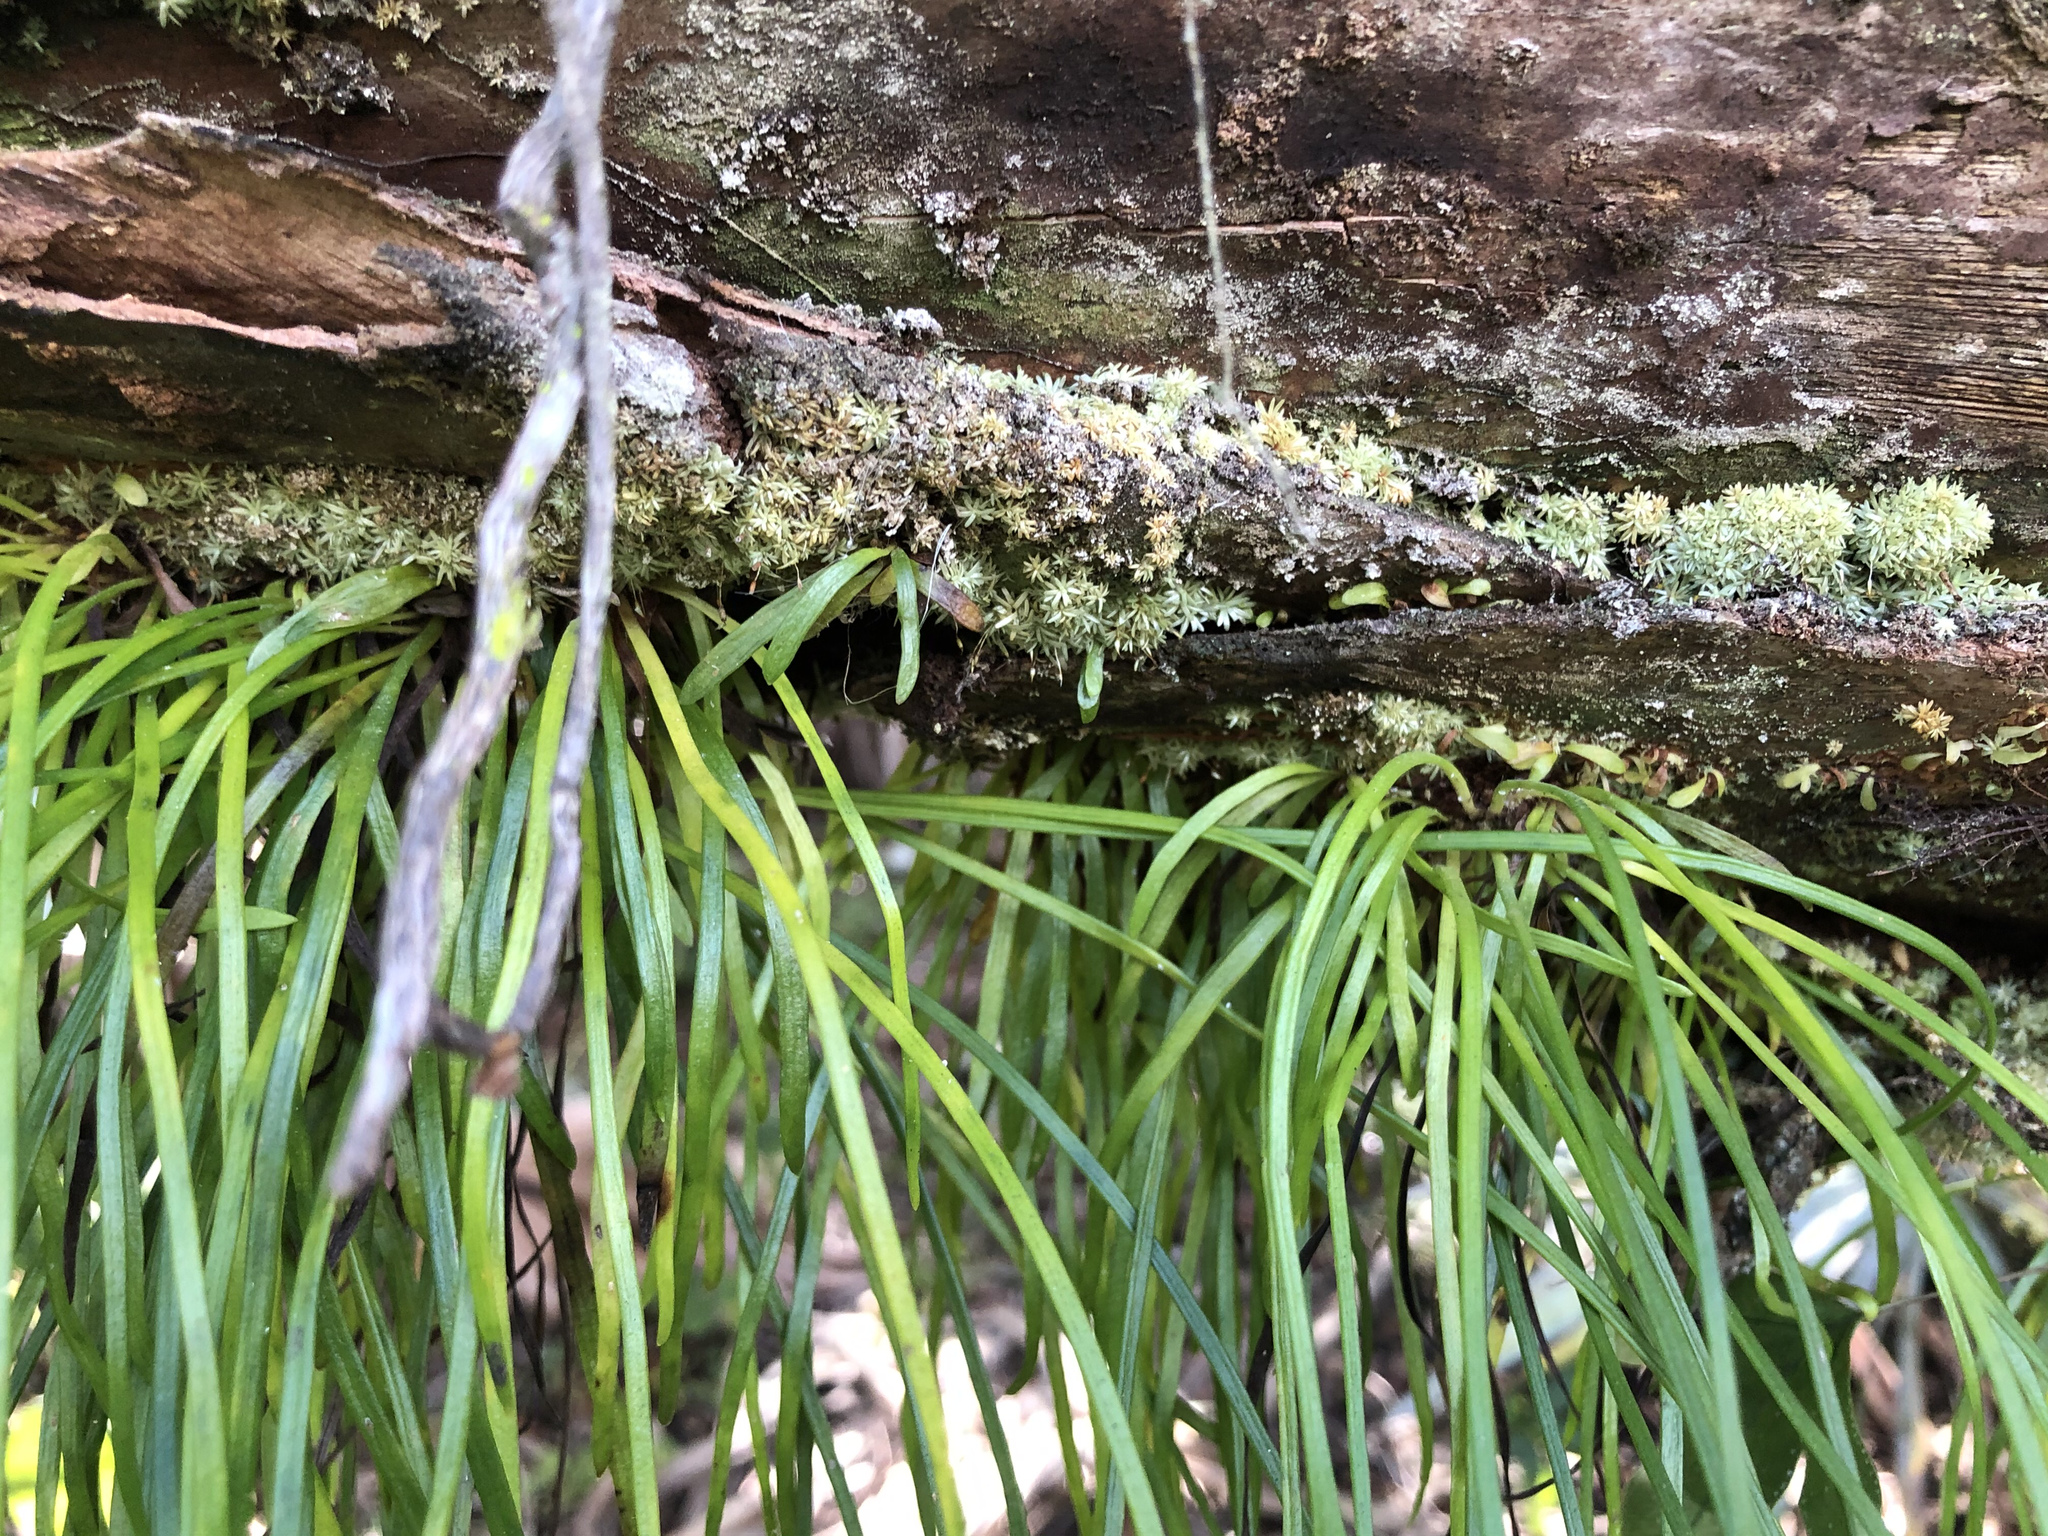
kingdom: Plantae
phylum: Tracheophyta
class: Polypodiopsida
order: Polypodiales
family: Pteridaceae
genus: Vittaria
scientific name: Vittaria lineata
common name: Shoestring fern
